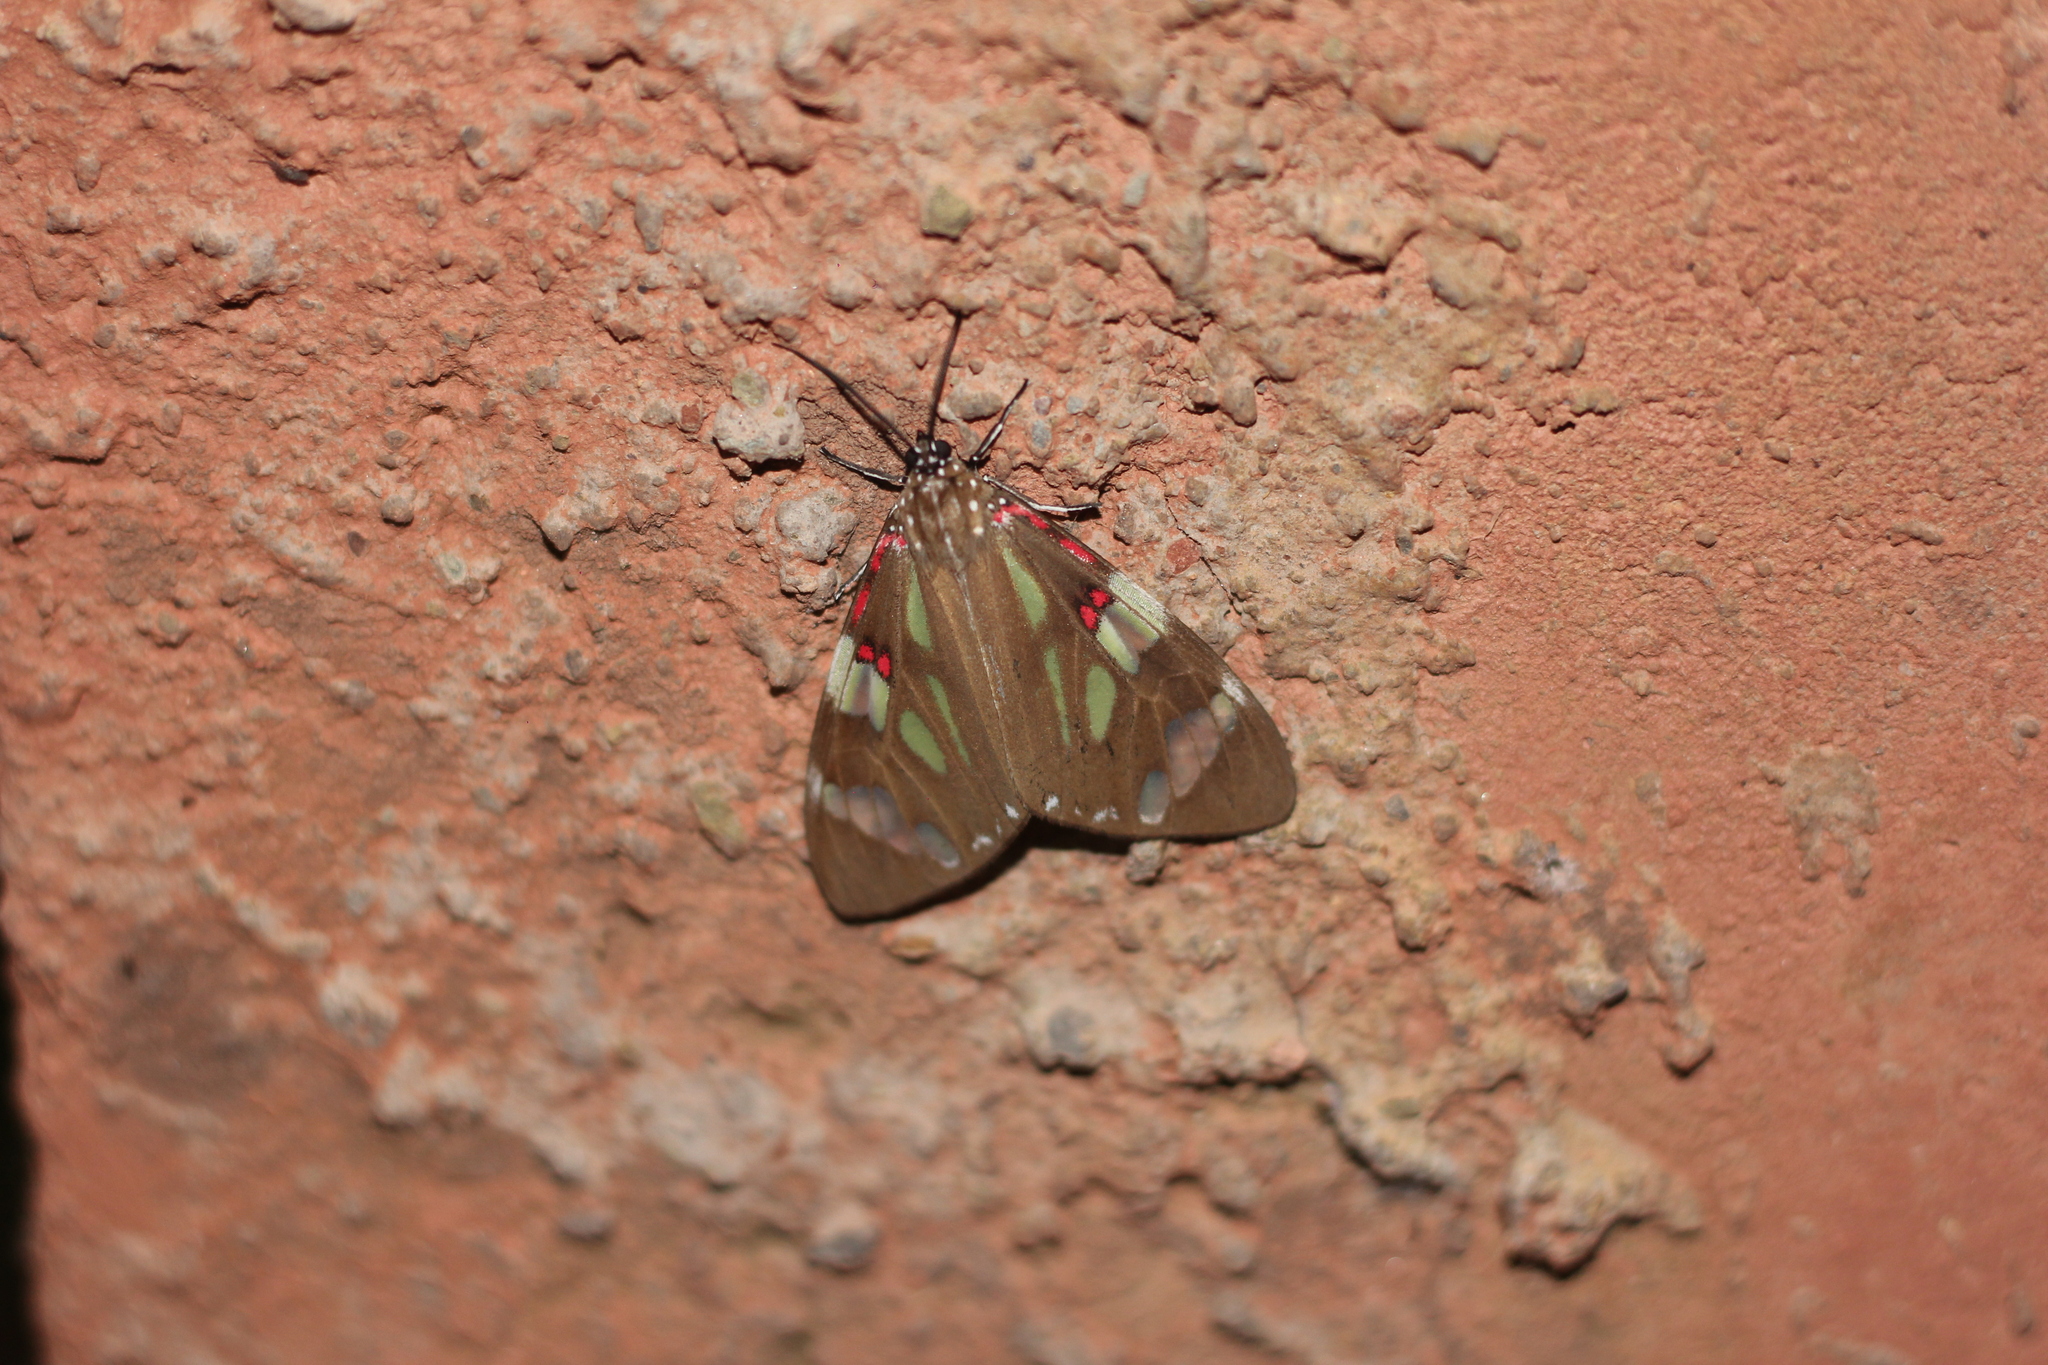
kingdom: Animalia
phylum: Arthropoda
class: Insecta
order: Lepidoptera
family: Erebidae
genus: Phaloe
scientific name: Phaloe cruenta
